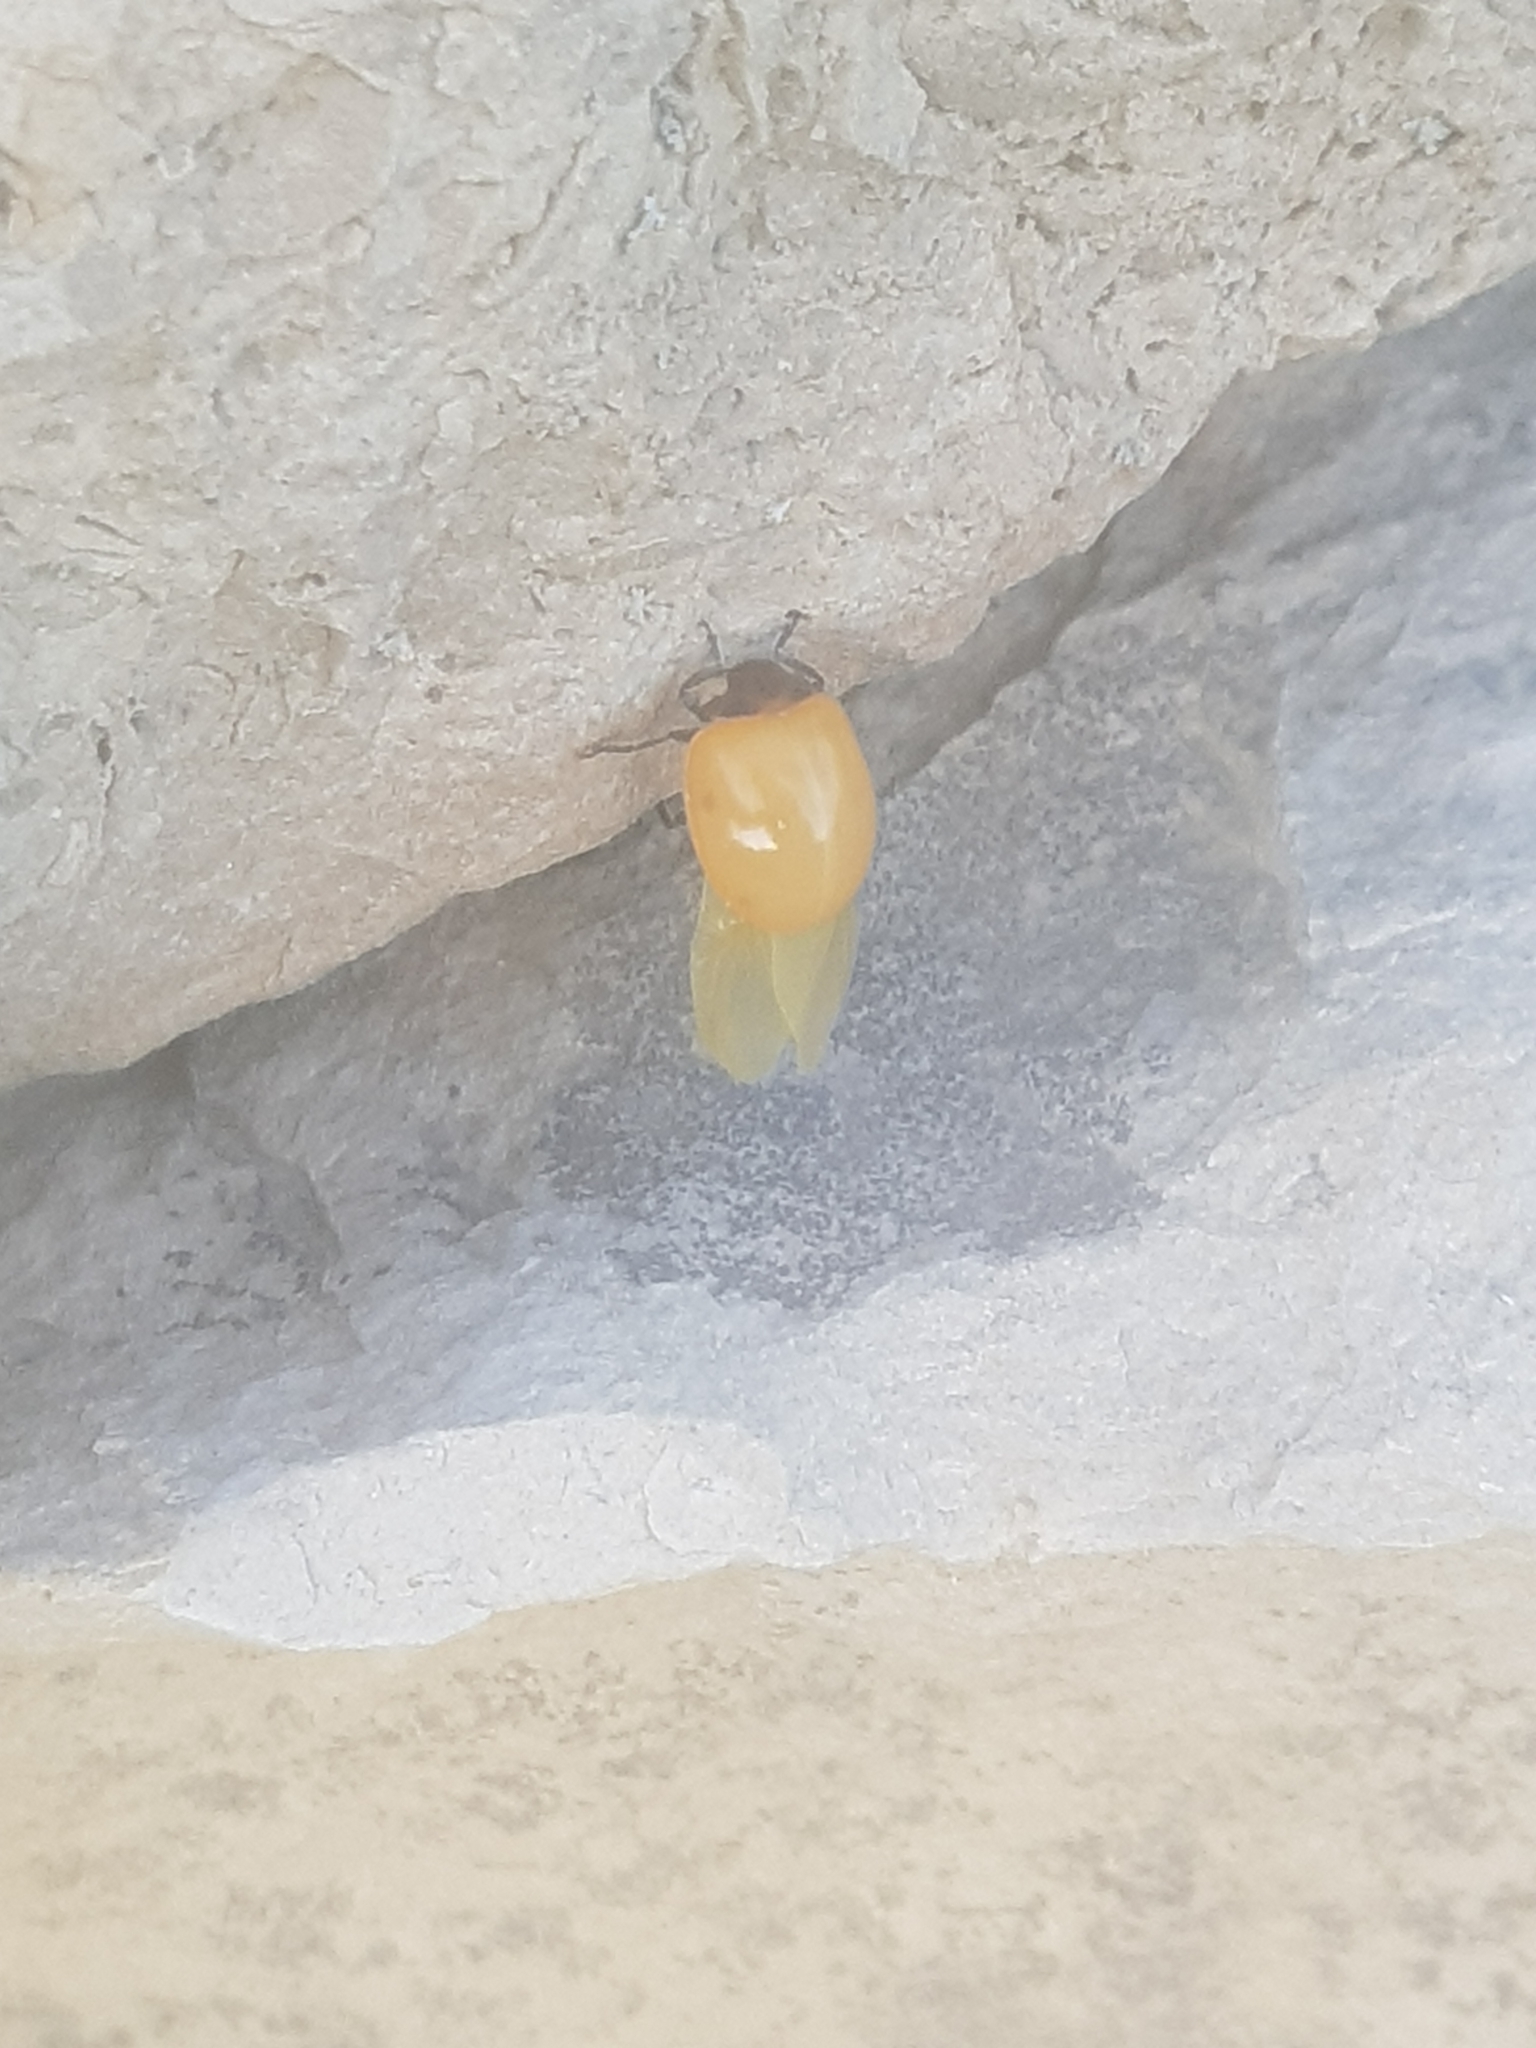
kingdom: Animalia
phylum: Arthropoda
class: Insecta
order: Coleoptera
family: Coccinellidae
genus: Coccinella
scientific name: Coccinella septempunctata
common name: Sevenspotted lady beetle
